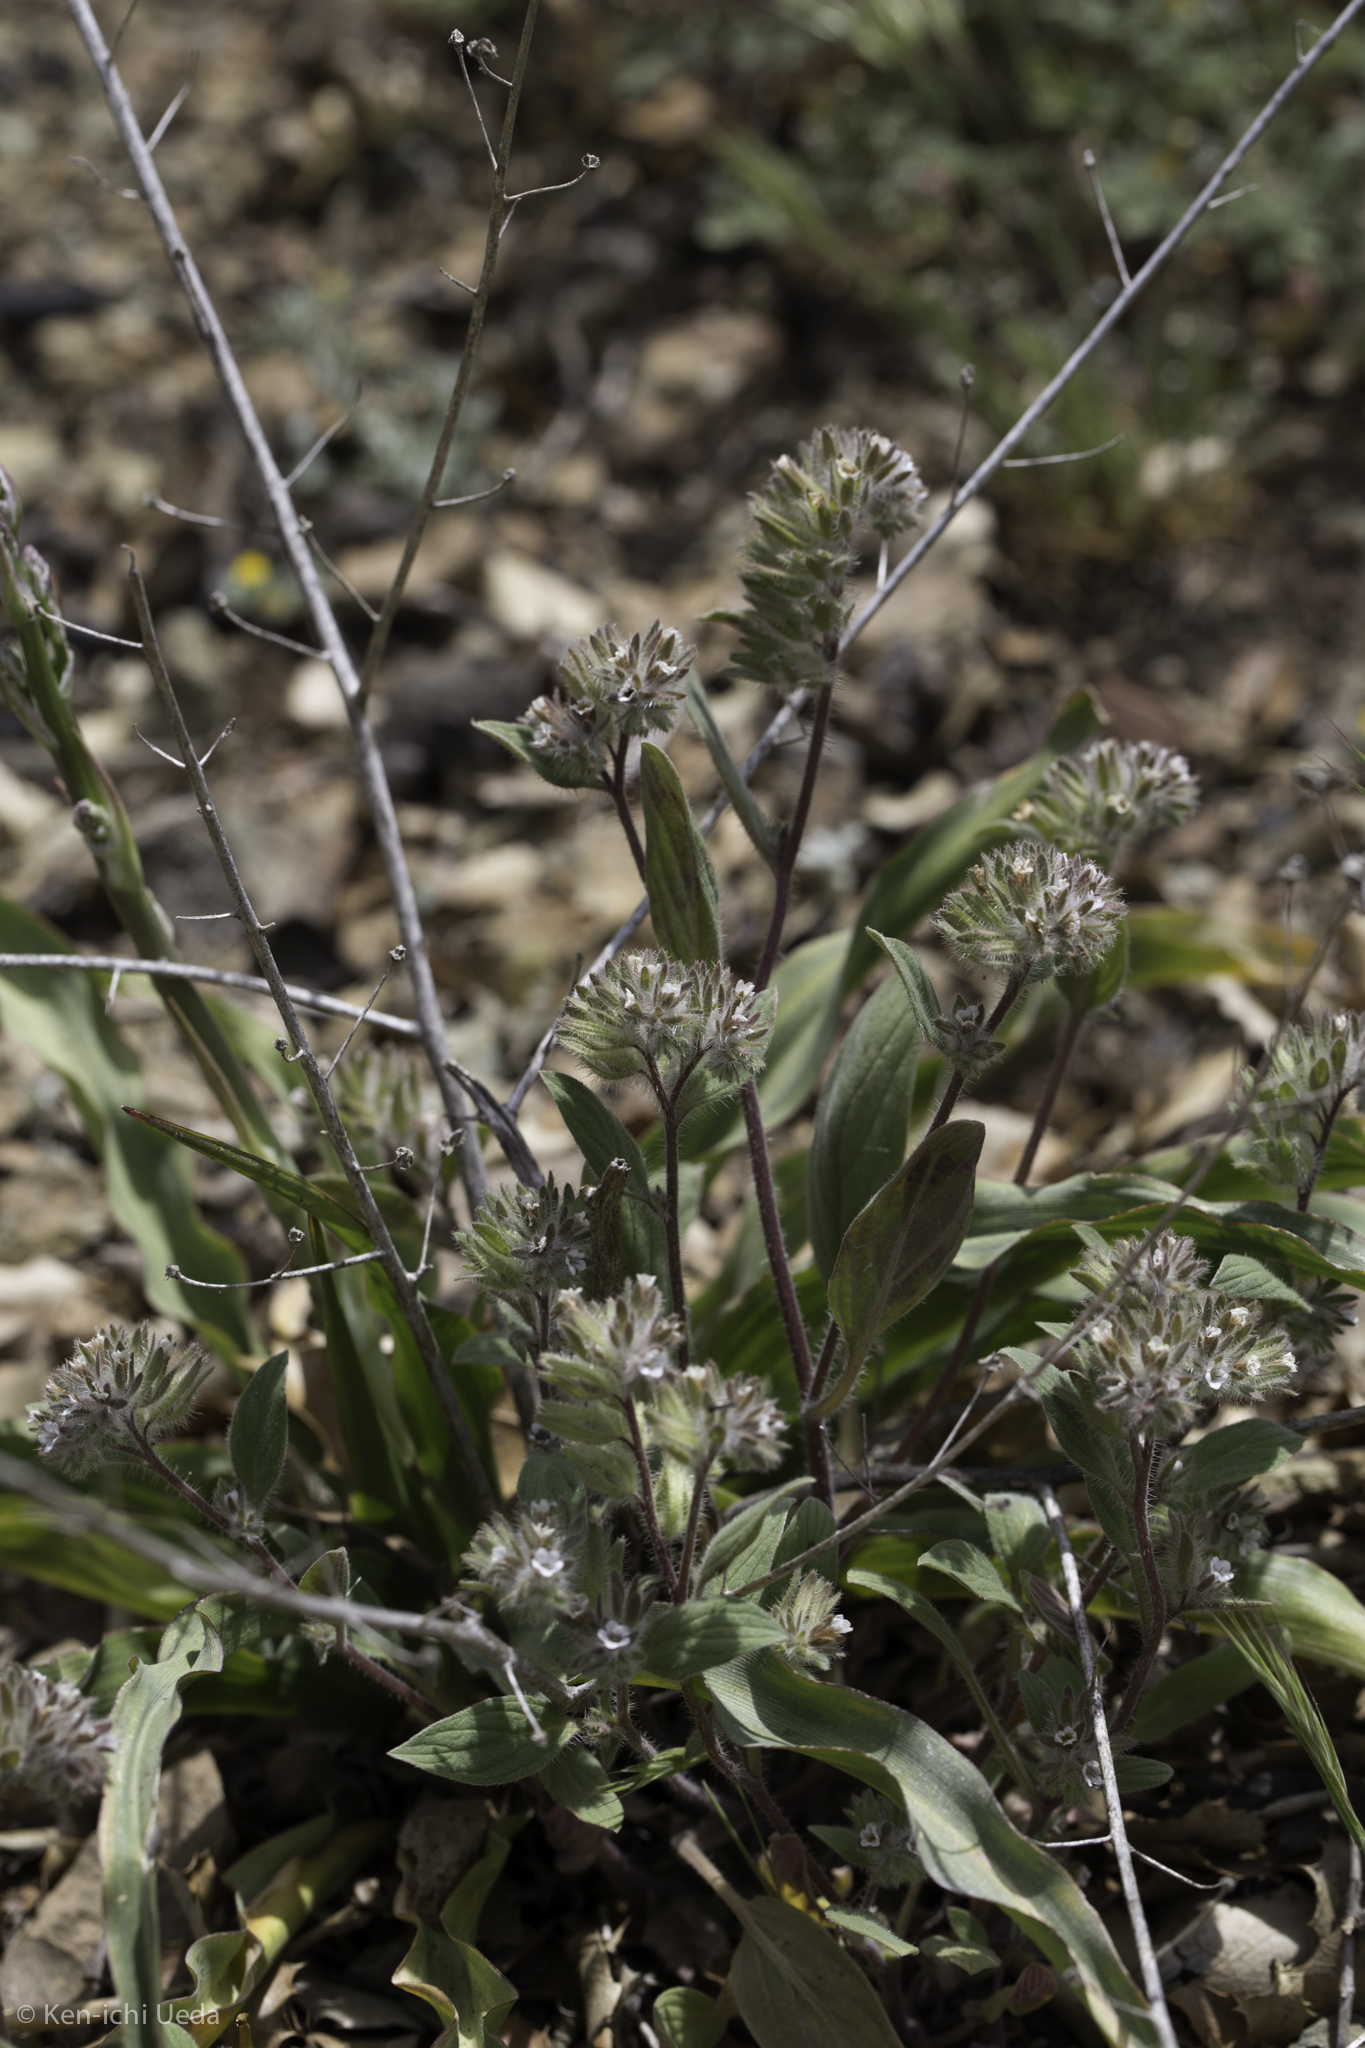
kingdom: Plantae
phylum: Tracheophyta
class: Magnoliopsida
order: Boraginales
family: Hydrophyllaceae
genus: Phacelia
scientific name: Phacelia phacelioides
